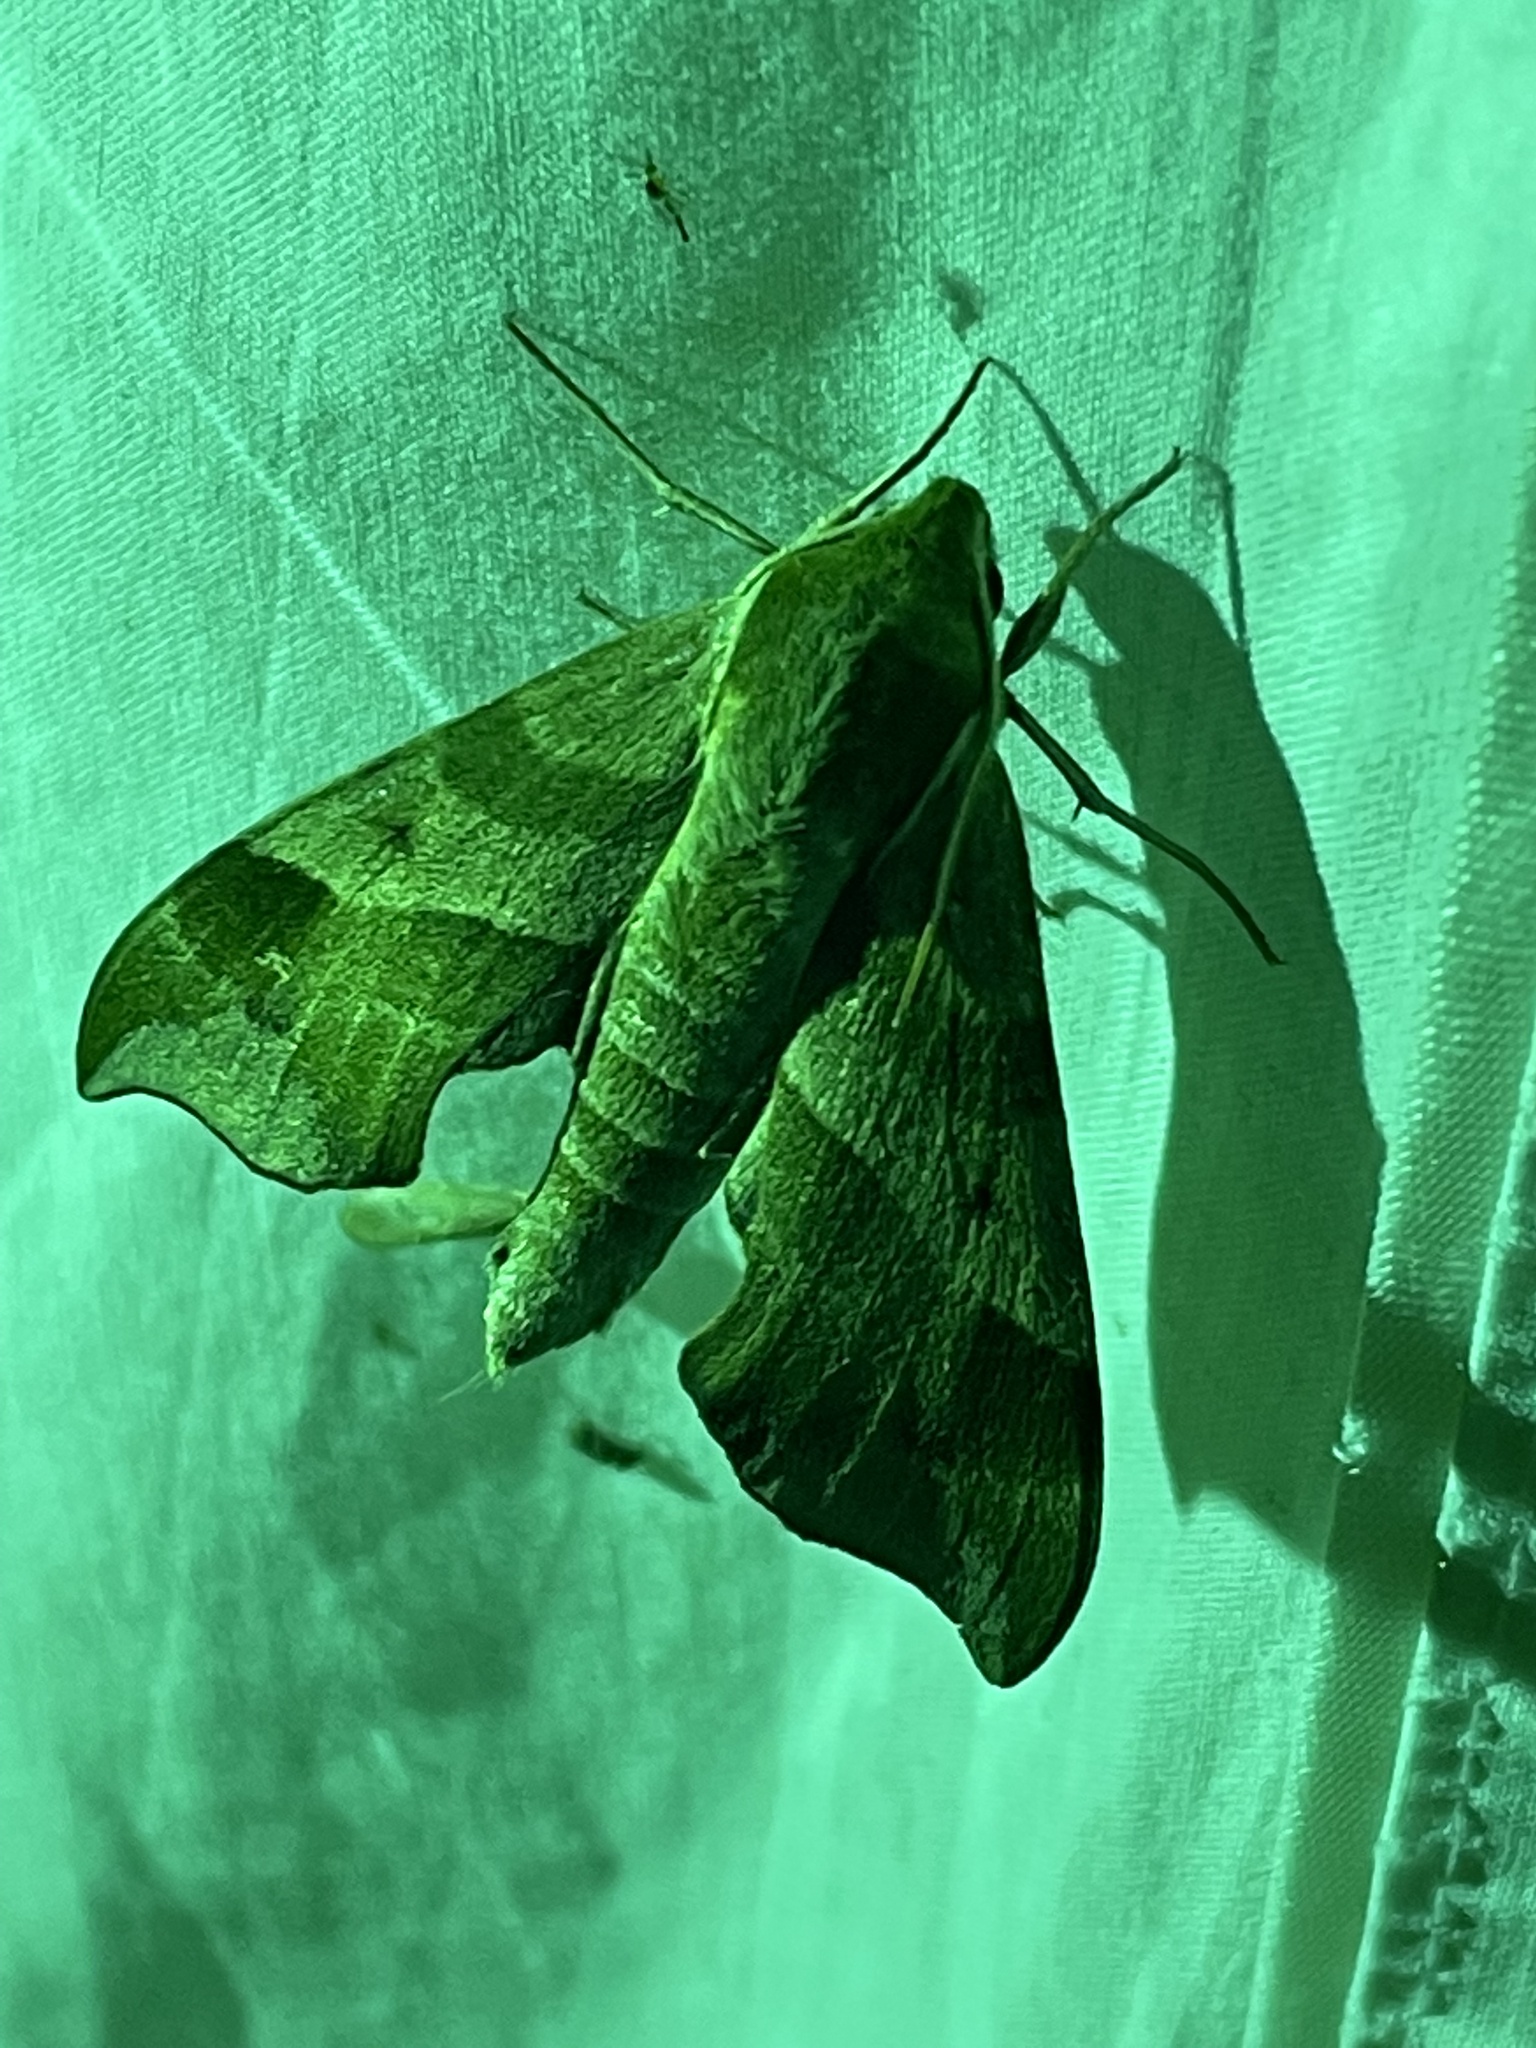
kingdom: Animalia
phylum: Arthropoda
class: Insecta
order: Lepidoptera
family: Sphingidae
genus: Darapsa
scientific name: Darapsa myron
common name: Hog sphinx
